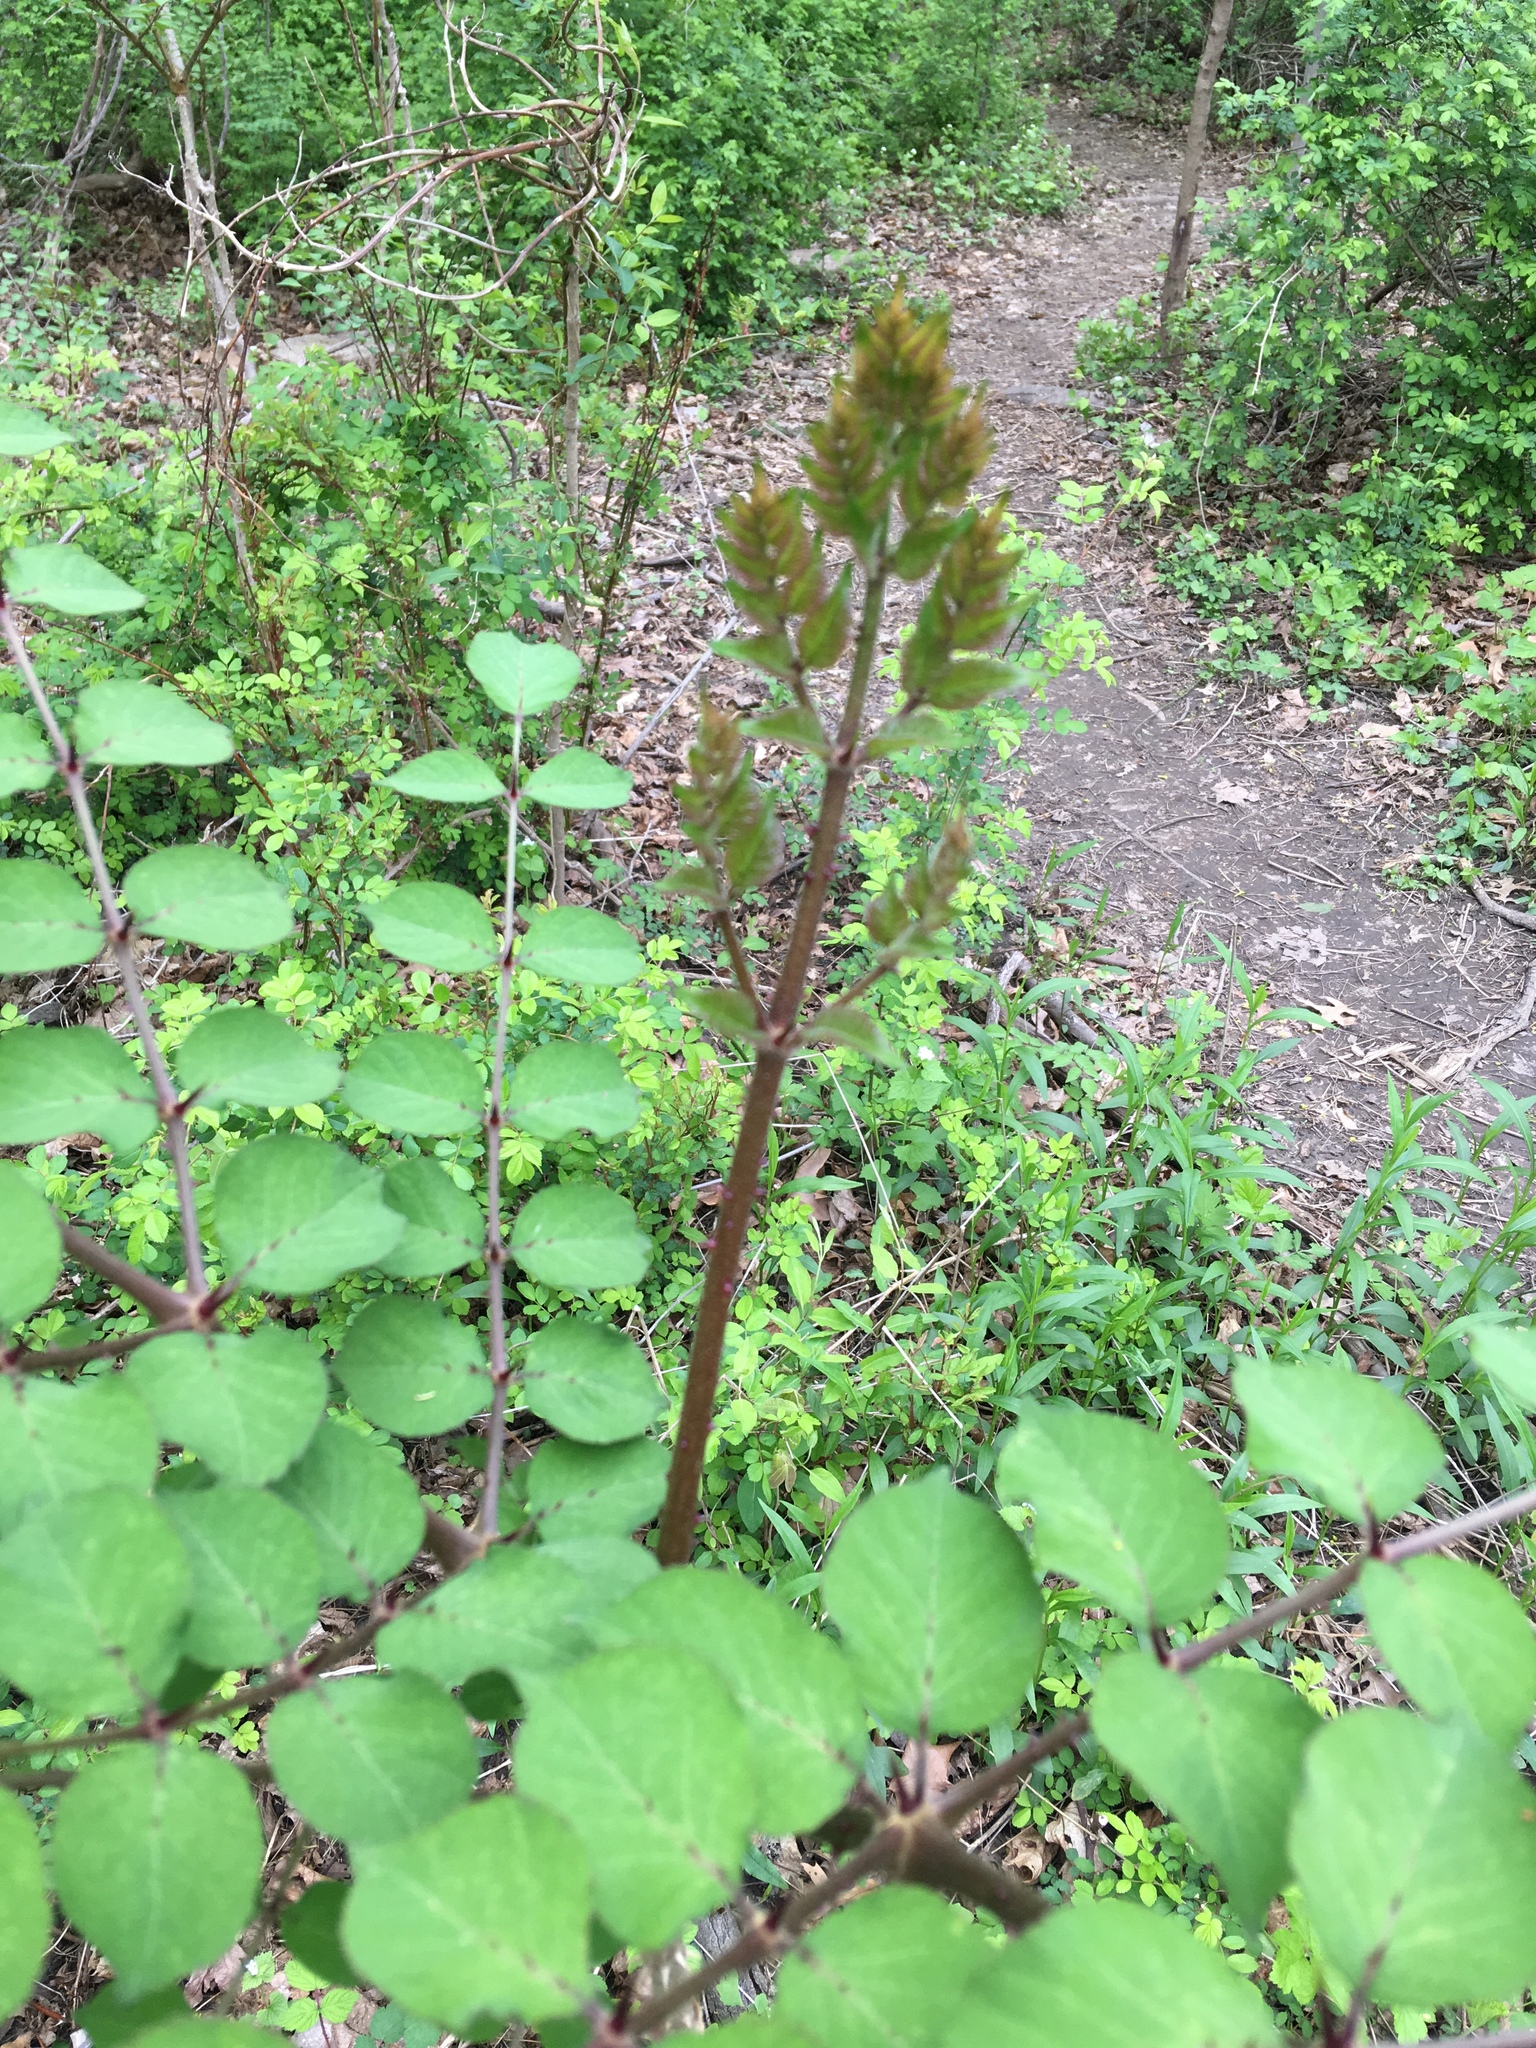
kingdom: Plantae
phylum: Tracheophyta
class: Magnoliopsida
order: Apiales
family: Araliaceae
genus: Aralia
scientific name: Aralia elata
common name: Japanese angelica-tree
